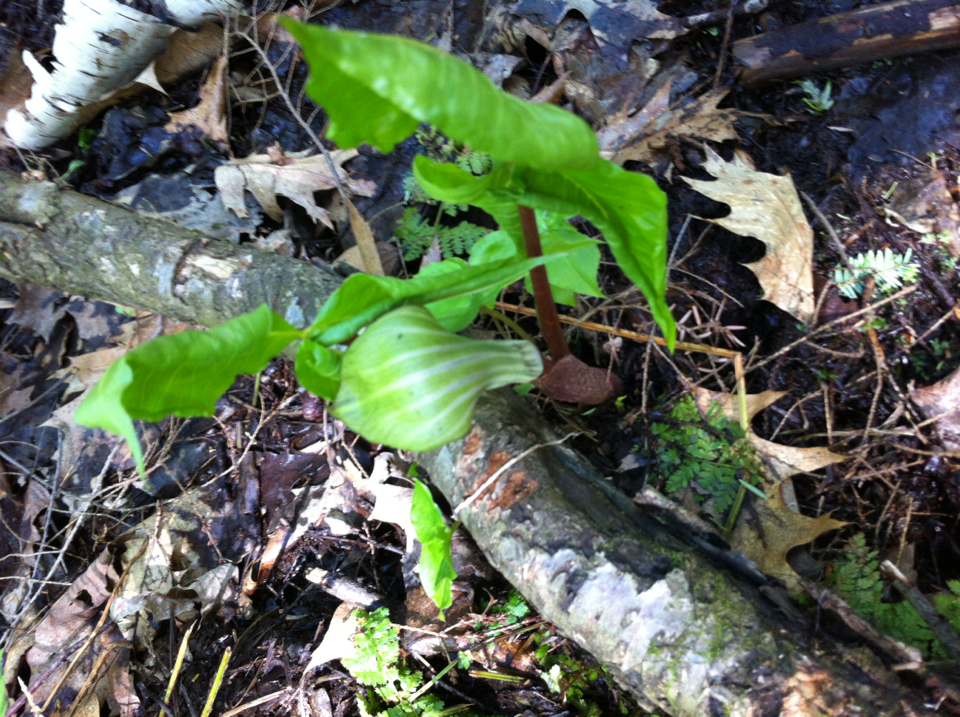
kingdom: Plantae
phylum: Tracheophyta
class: Liliopsida
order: Alismatales
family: Araceae
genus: Arisaema
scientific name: Arisaema triphyllum
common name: Jack-in-the-pulpit
